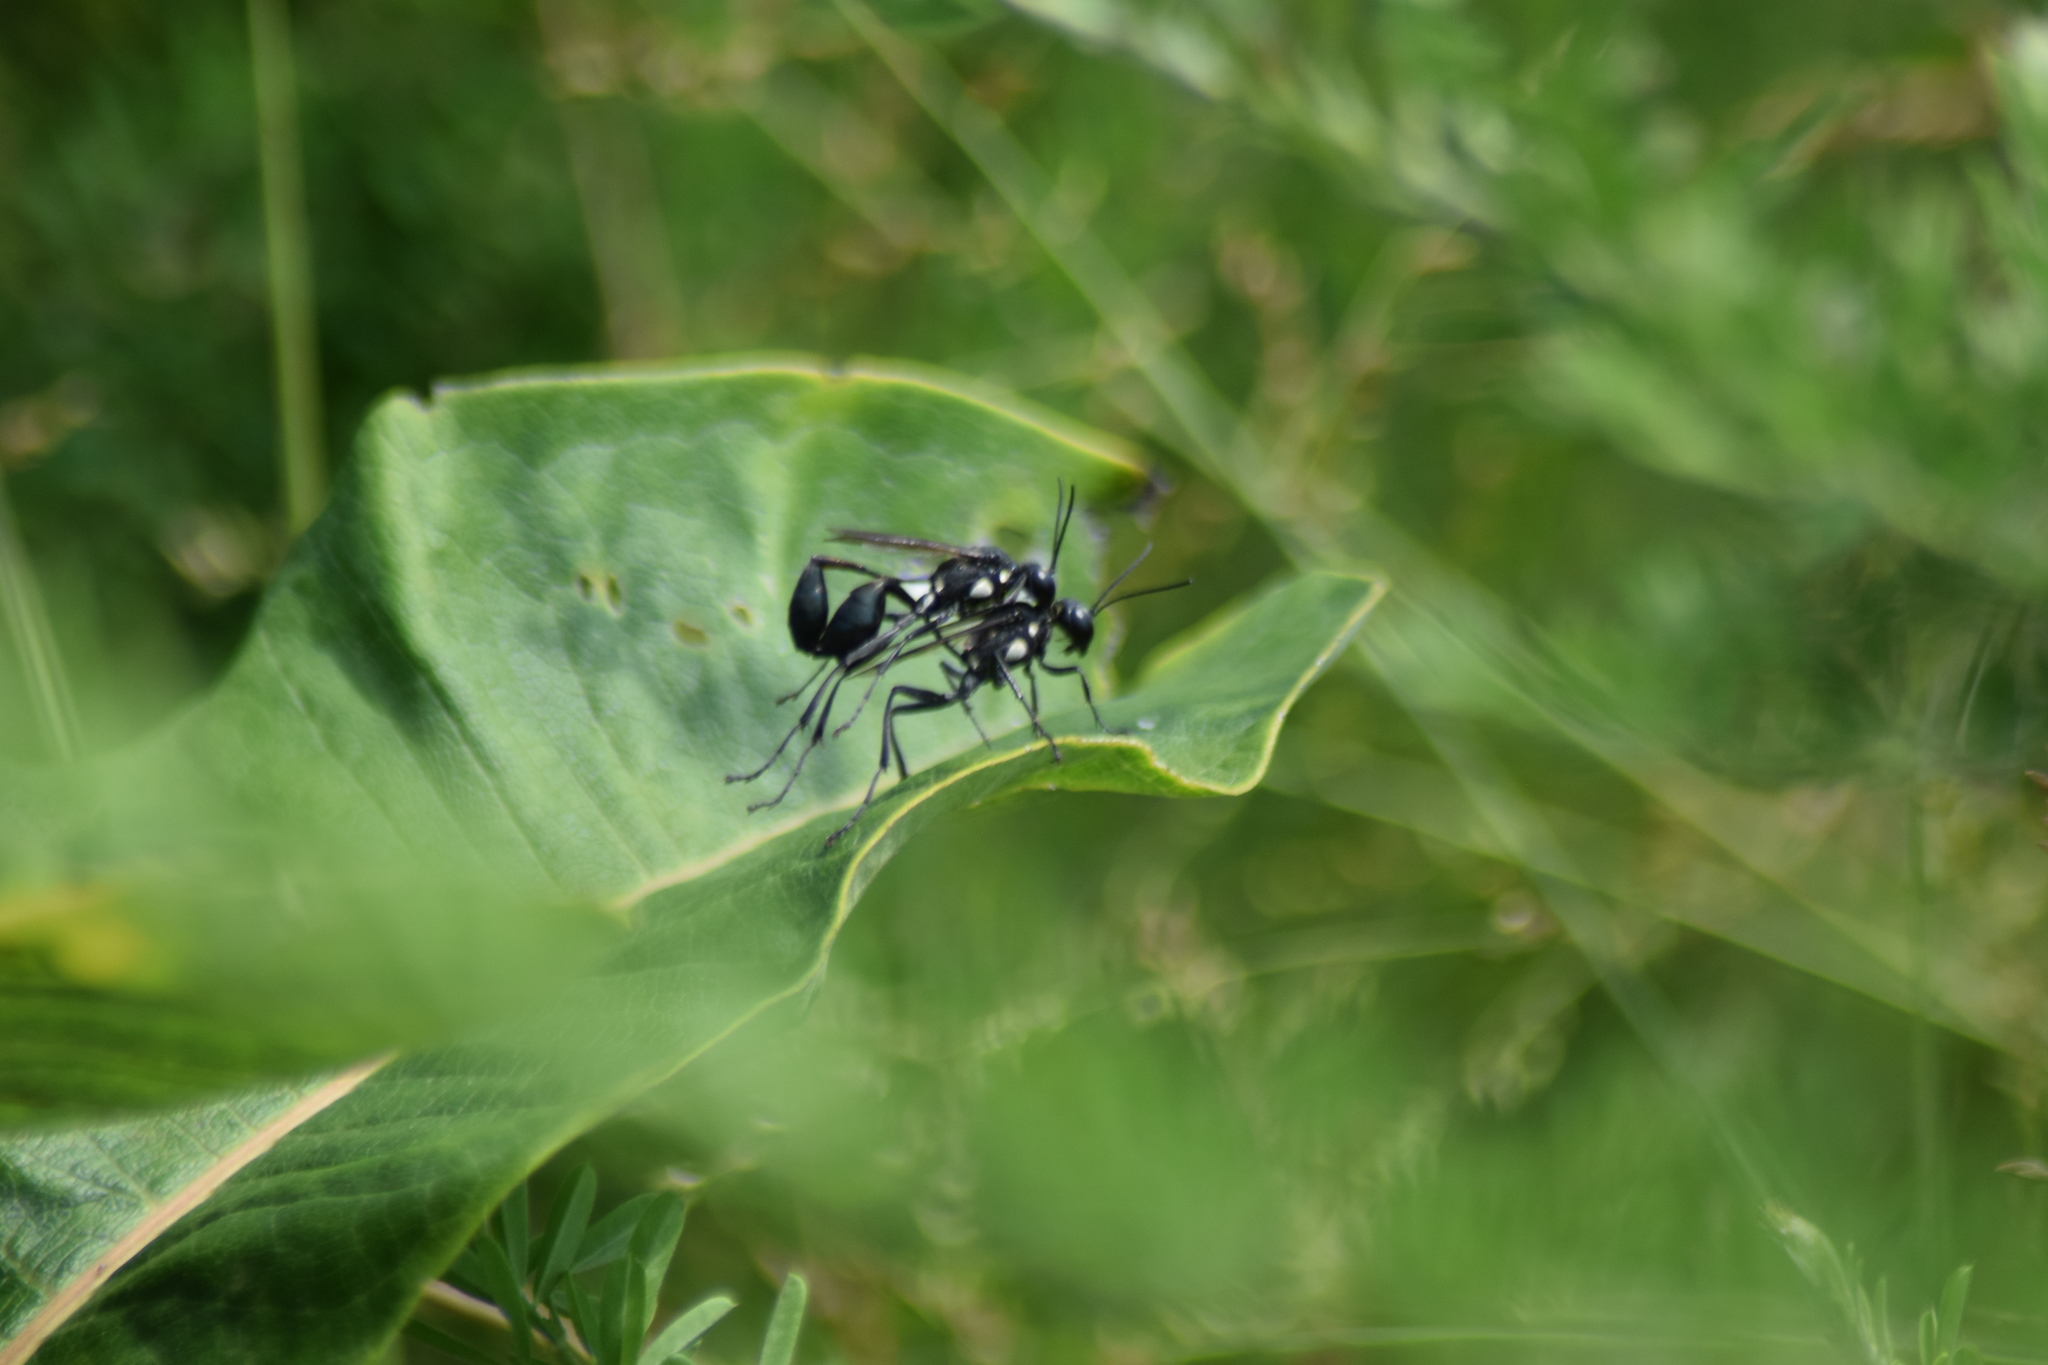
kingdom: Animalia
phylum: Arthropoda
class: Insecta
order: Hymenoptera
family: Sphecidae
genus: Eremnophila
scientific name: Eremnophila aureonotata
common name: Gold-marked thread-waisted wasp
